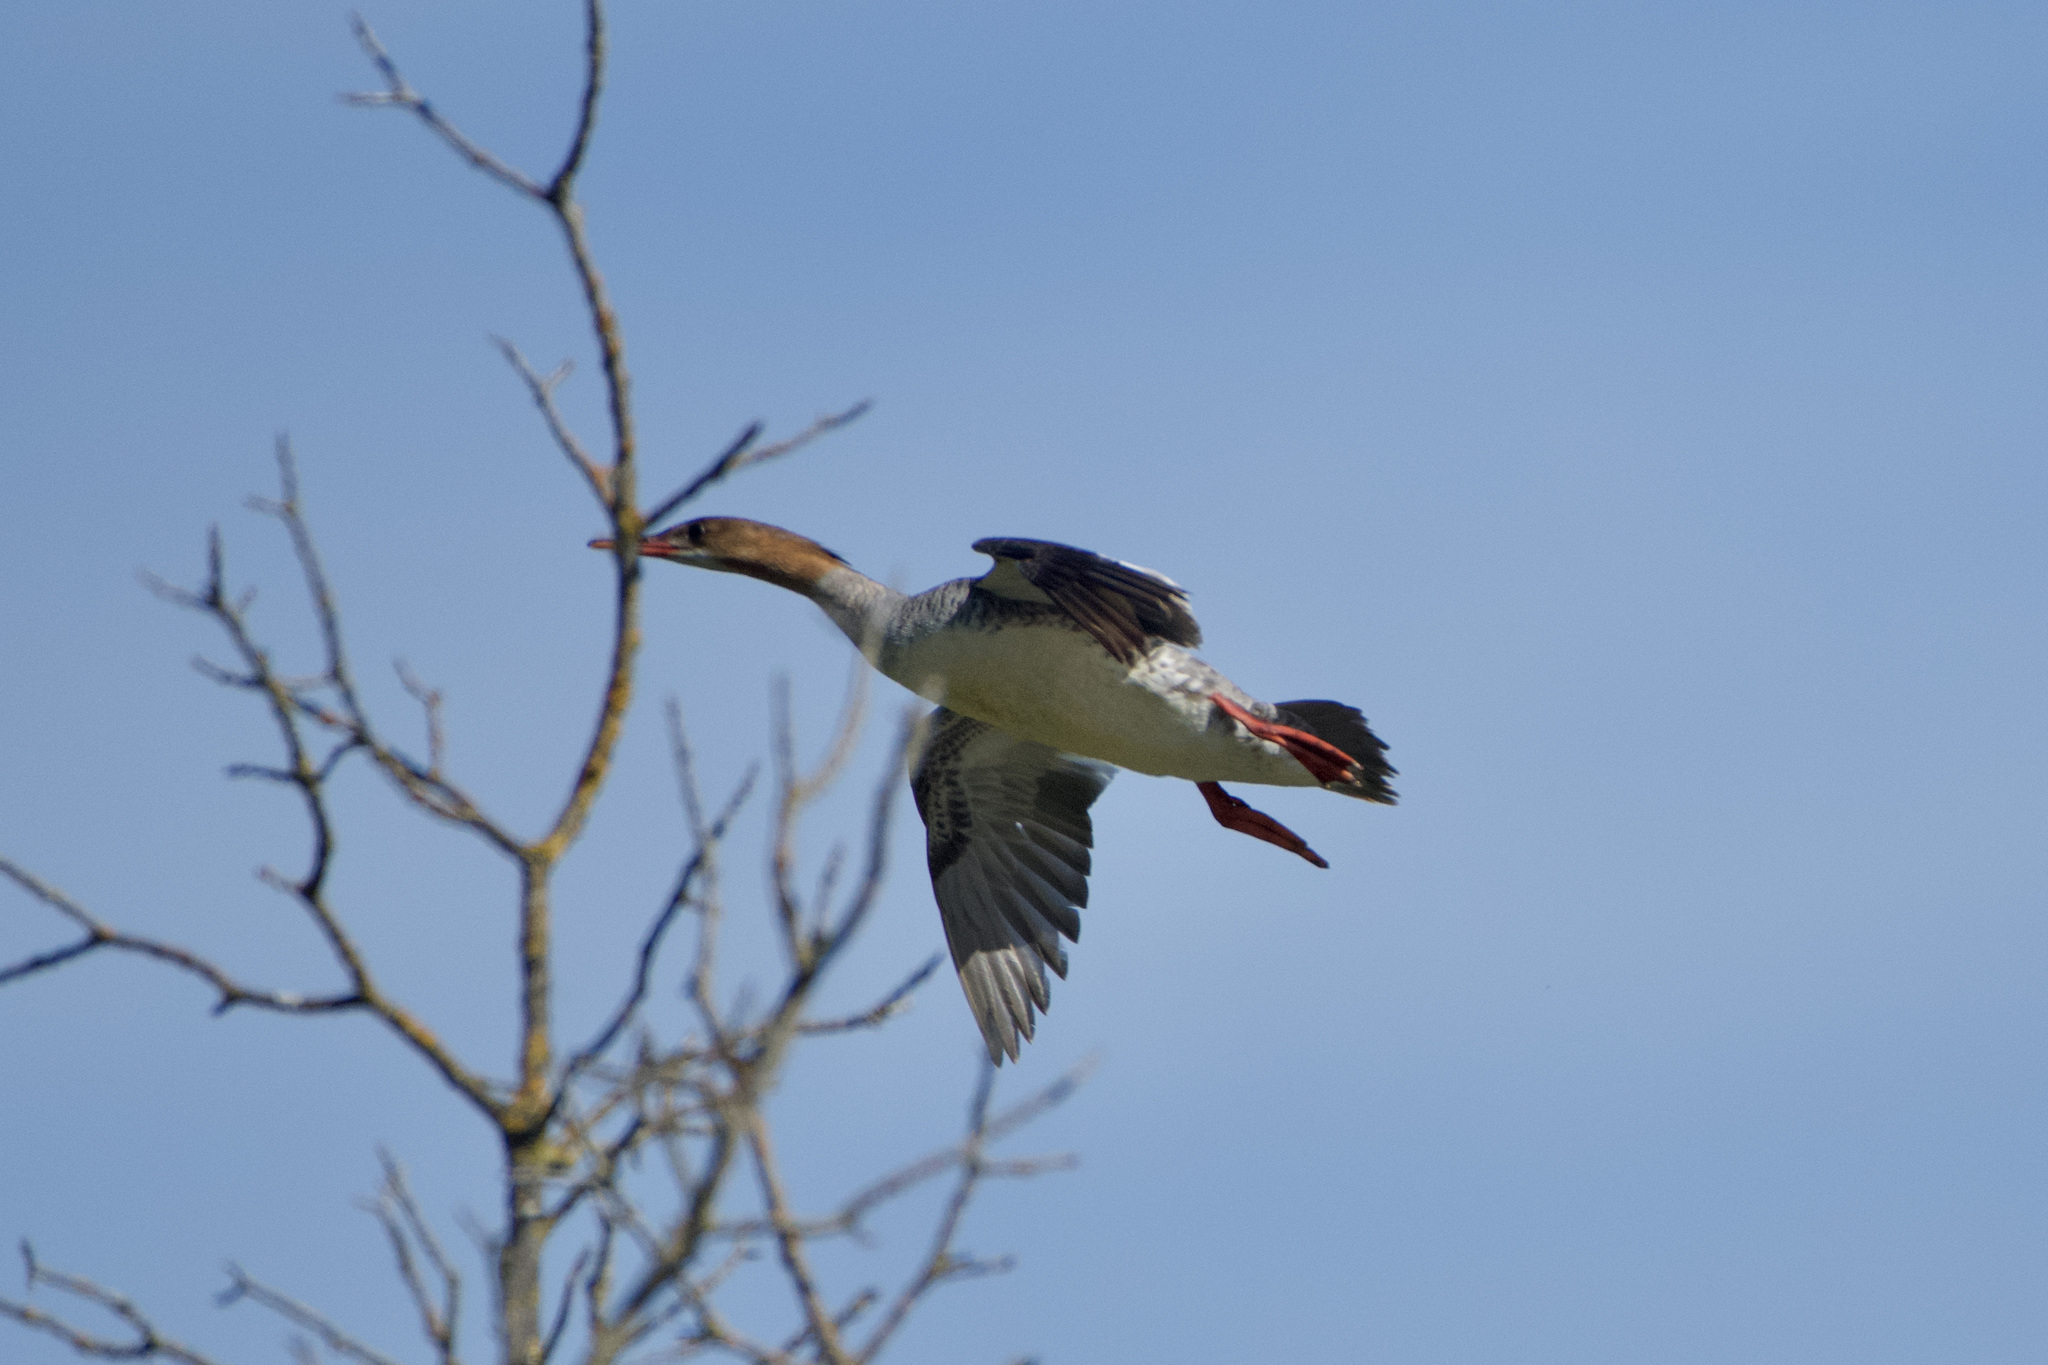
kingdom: Animalia
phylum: Chordata
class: Aves
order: Anseriformes
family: Anatidae
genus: Mergus
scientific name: Mergus merganser
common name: Common merganser
